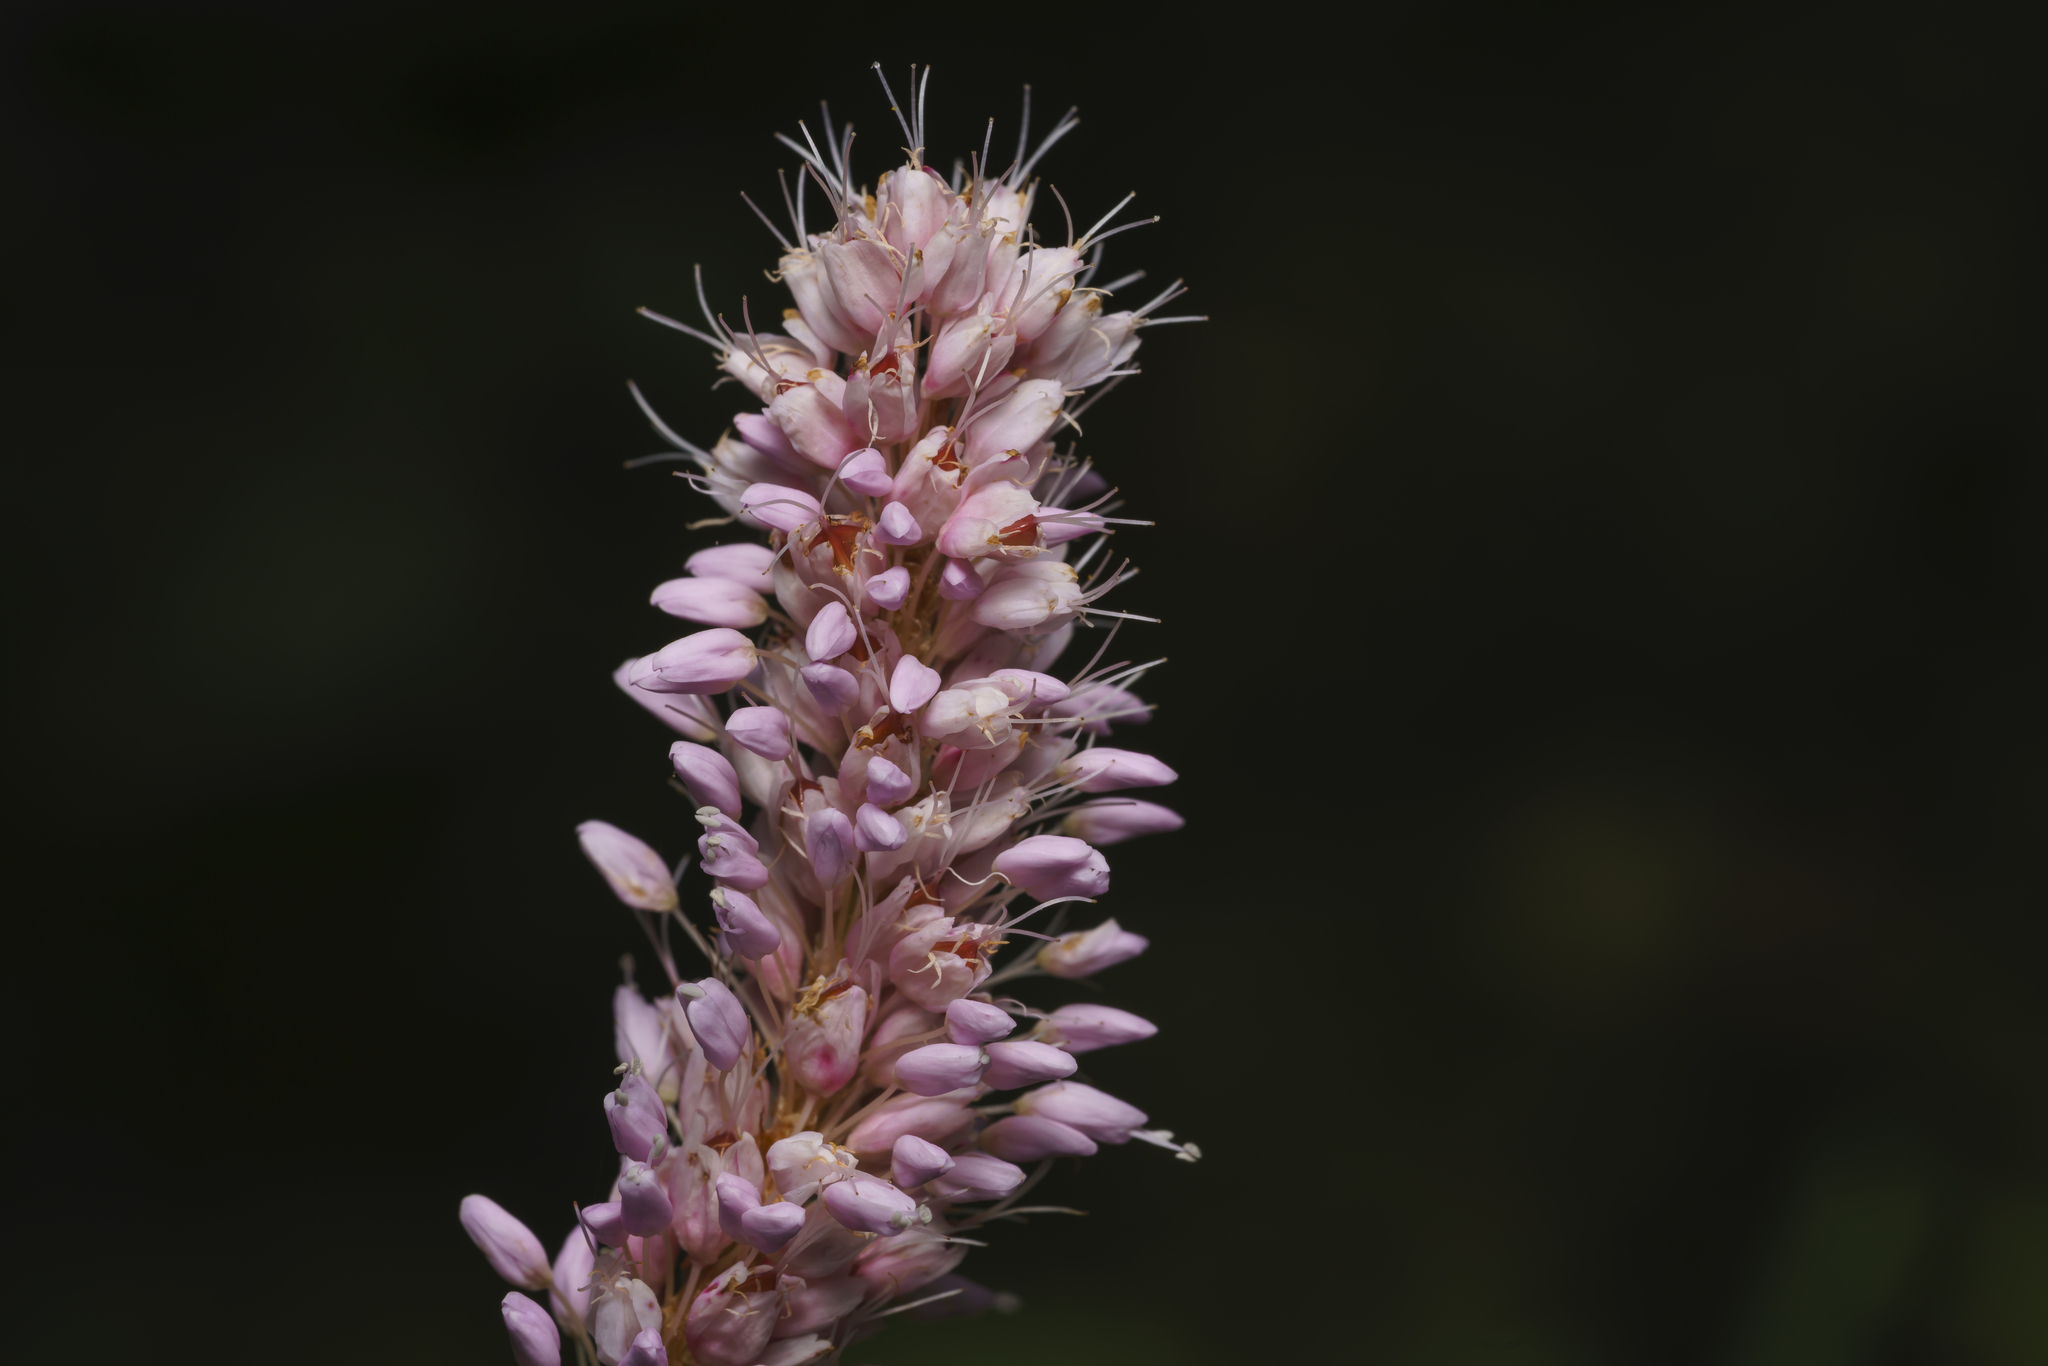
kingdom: Plantae
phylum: Tracheophyta
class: Magnoliopsida
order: Caryophyllales
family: Polygonaceae
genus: Bistorta
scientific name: Bistorta officinalis
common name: Common bistort
